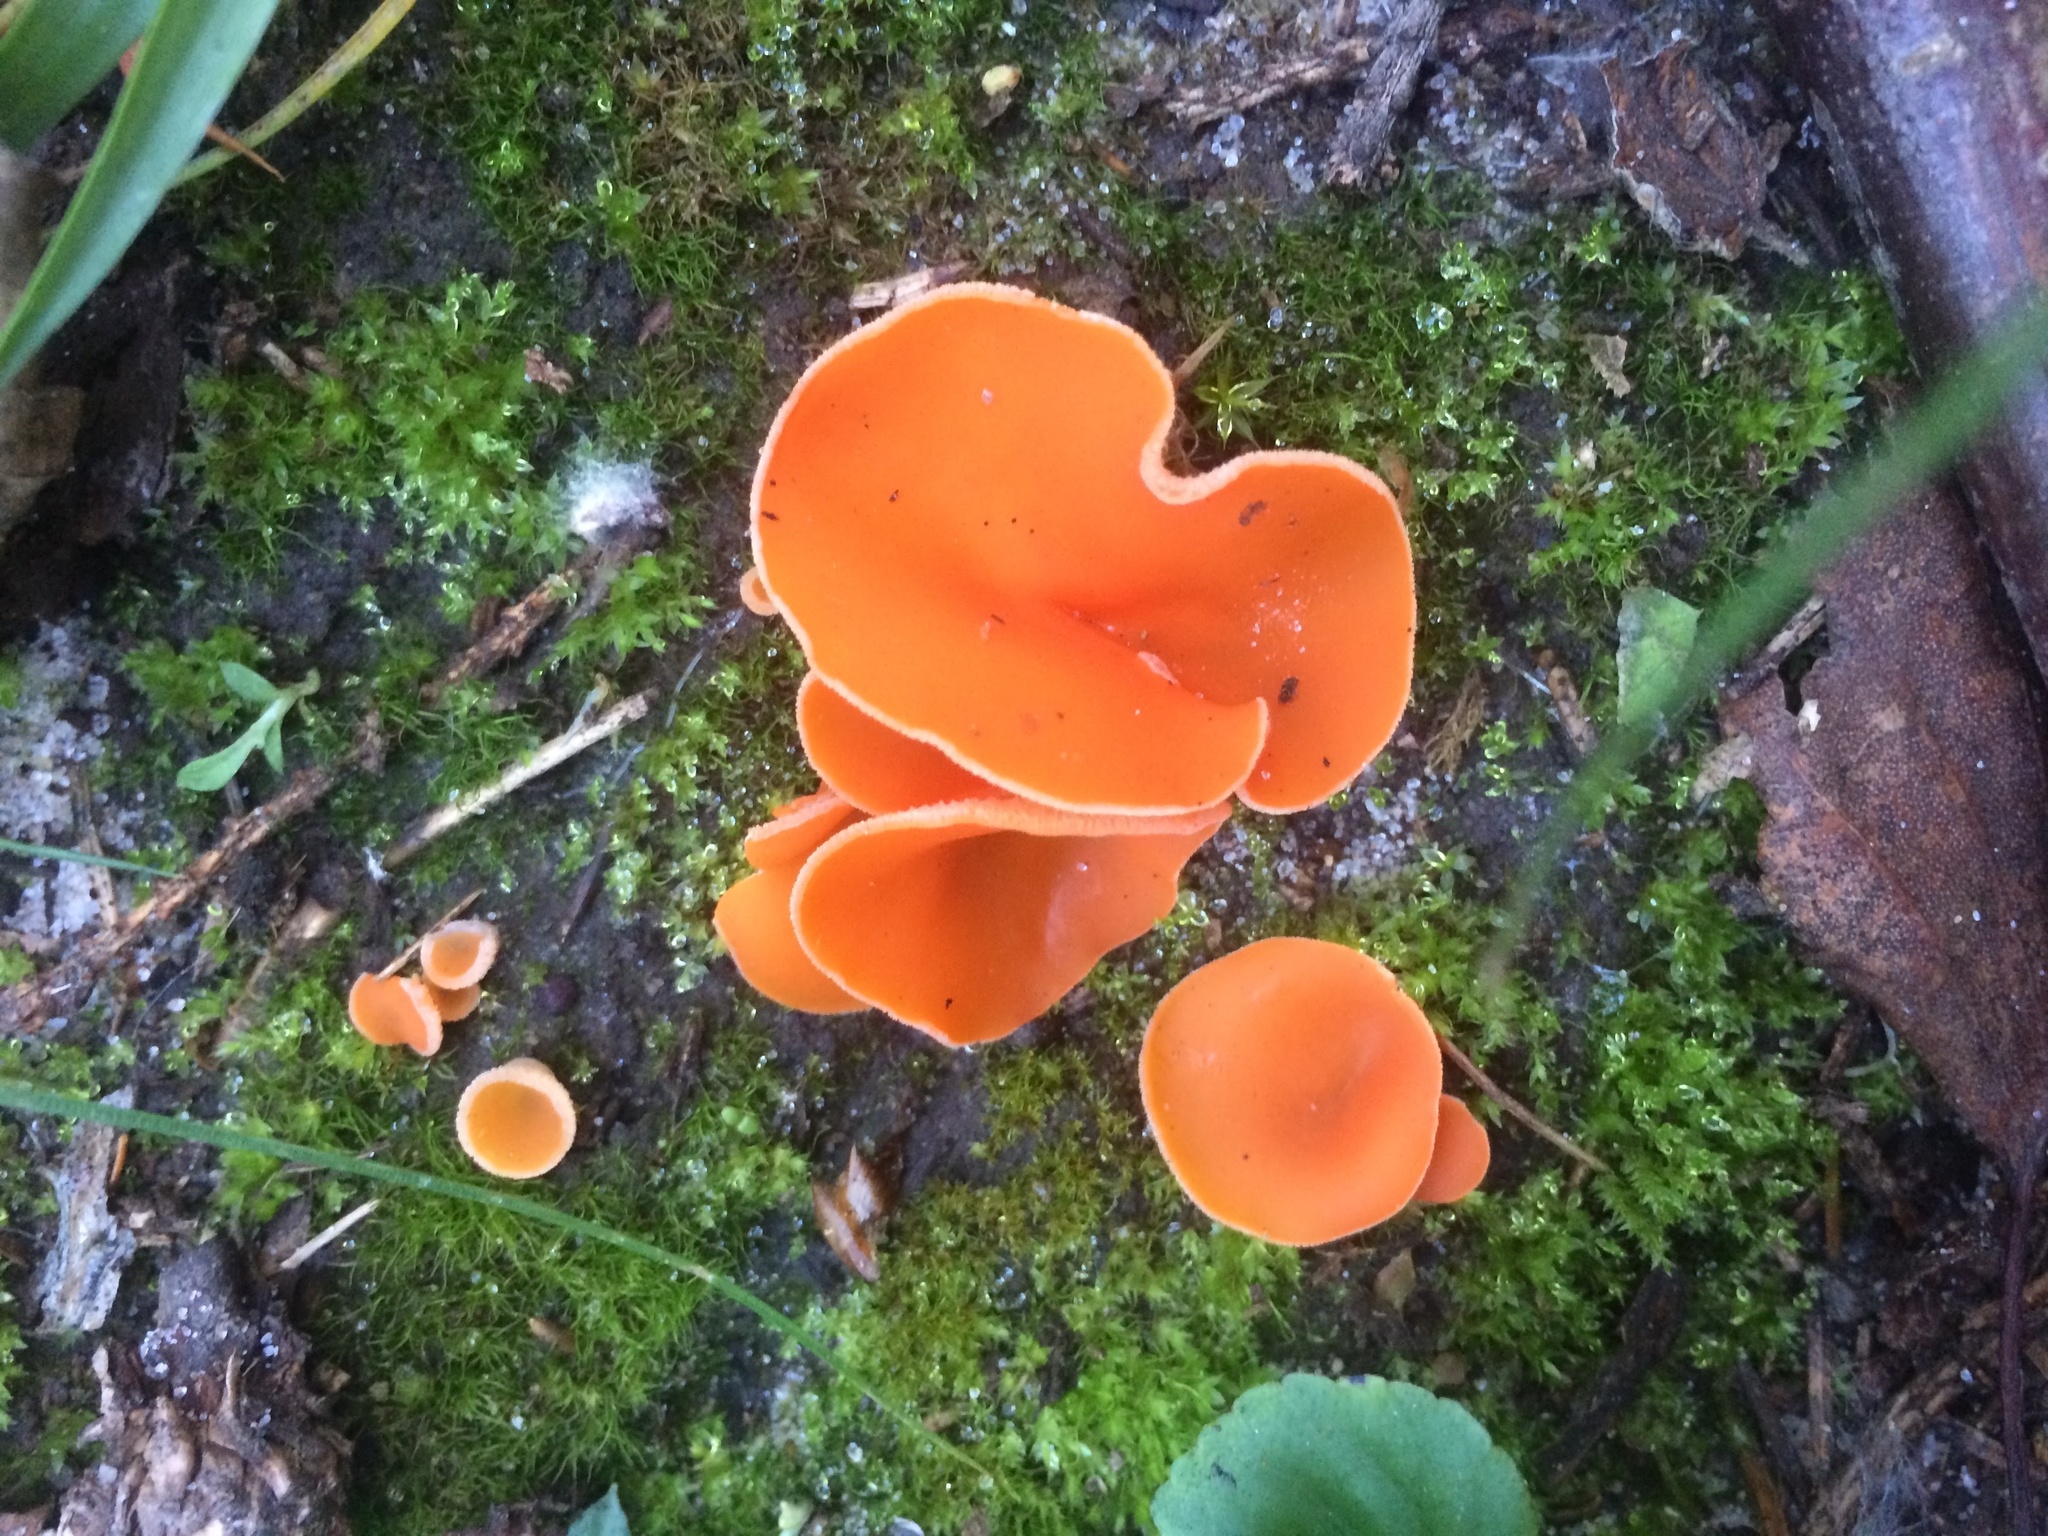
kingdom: Fungi
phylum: Ascomycota
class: Pezizomycetes
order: Pezizales
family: Pyronemataceae
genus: Aleuria
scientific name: Aleuria aurantia
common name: Orange peel fungus
